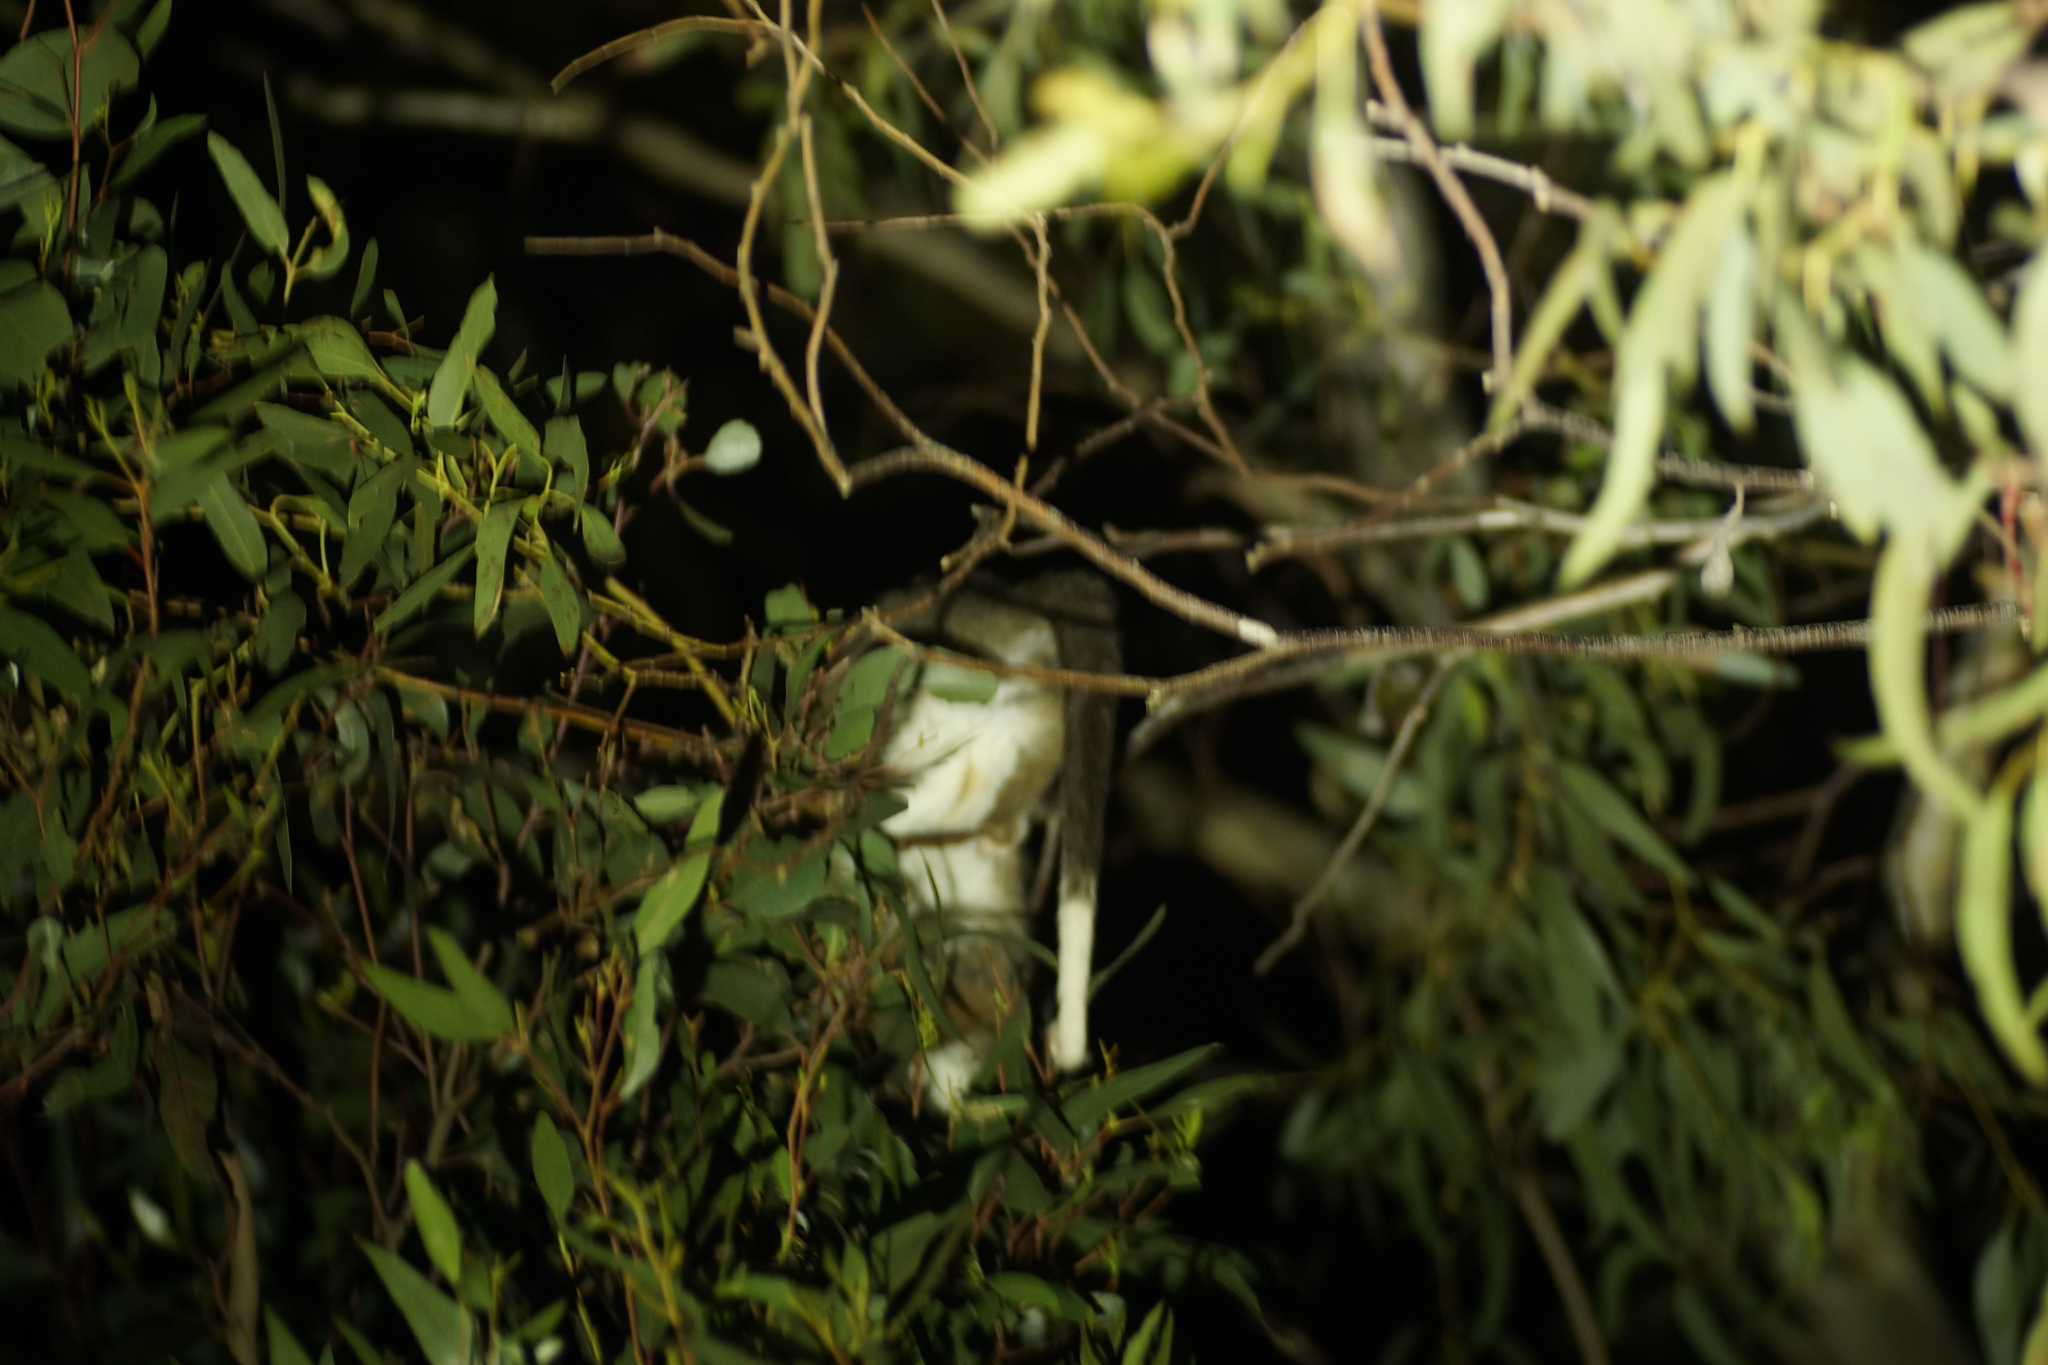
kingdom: Animalia
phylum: Chordata
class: Mammalia
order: Diprotodontia
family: Pseudocheiridae
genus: Pseudocheirus
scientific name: Pseudocheirus peregrinus
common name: Common ringtail possum
